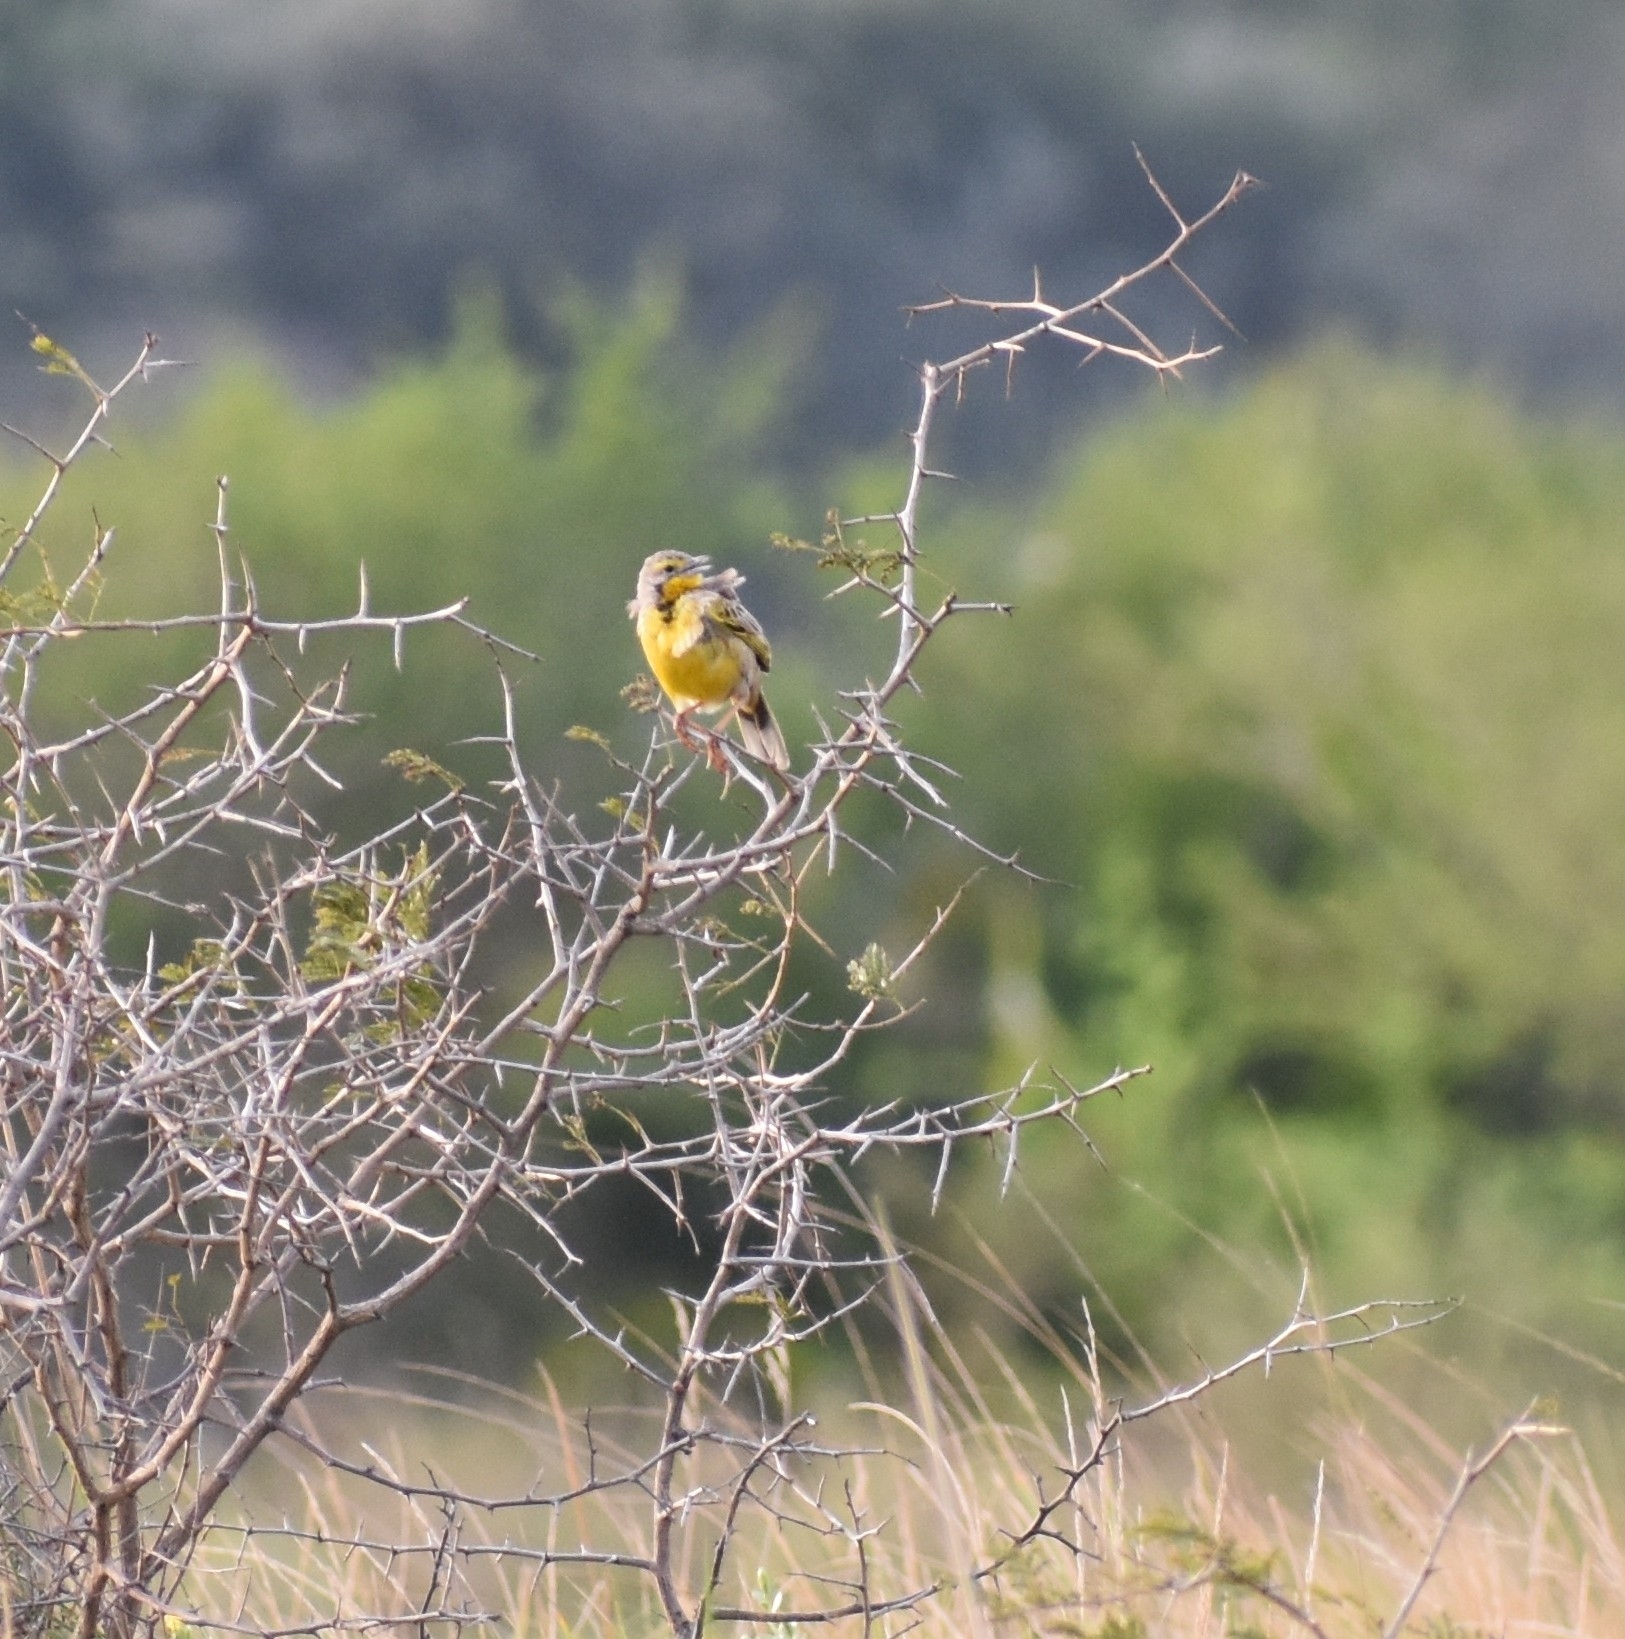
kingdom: Animalia
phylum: Chordata
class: Aves
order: Passeriformes
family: Motacillidae
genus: Macronyx
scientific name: Macronyx croceus
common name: Yellow-throated longclaw
